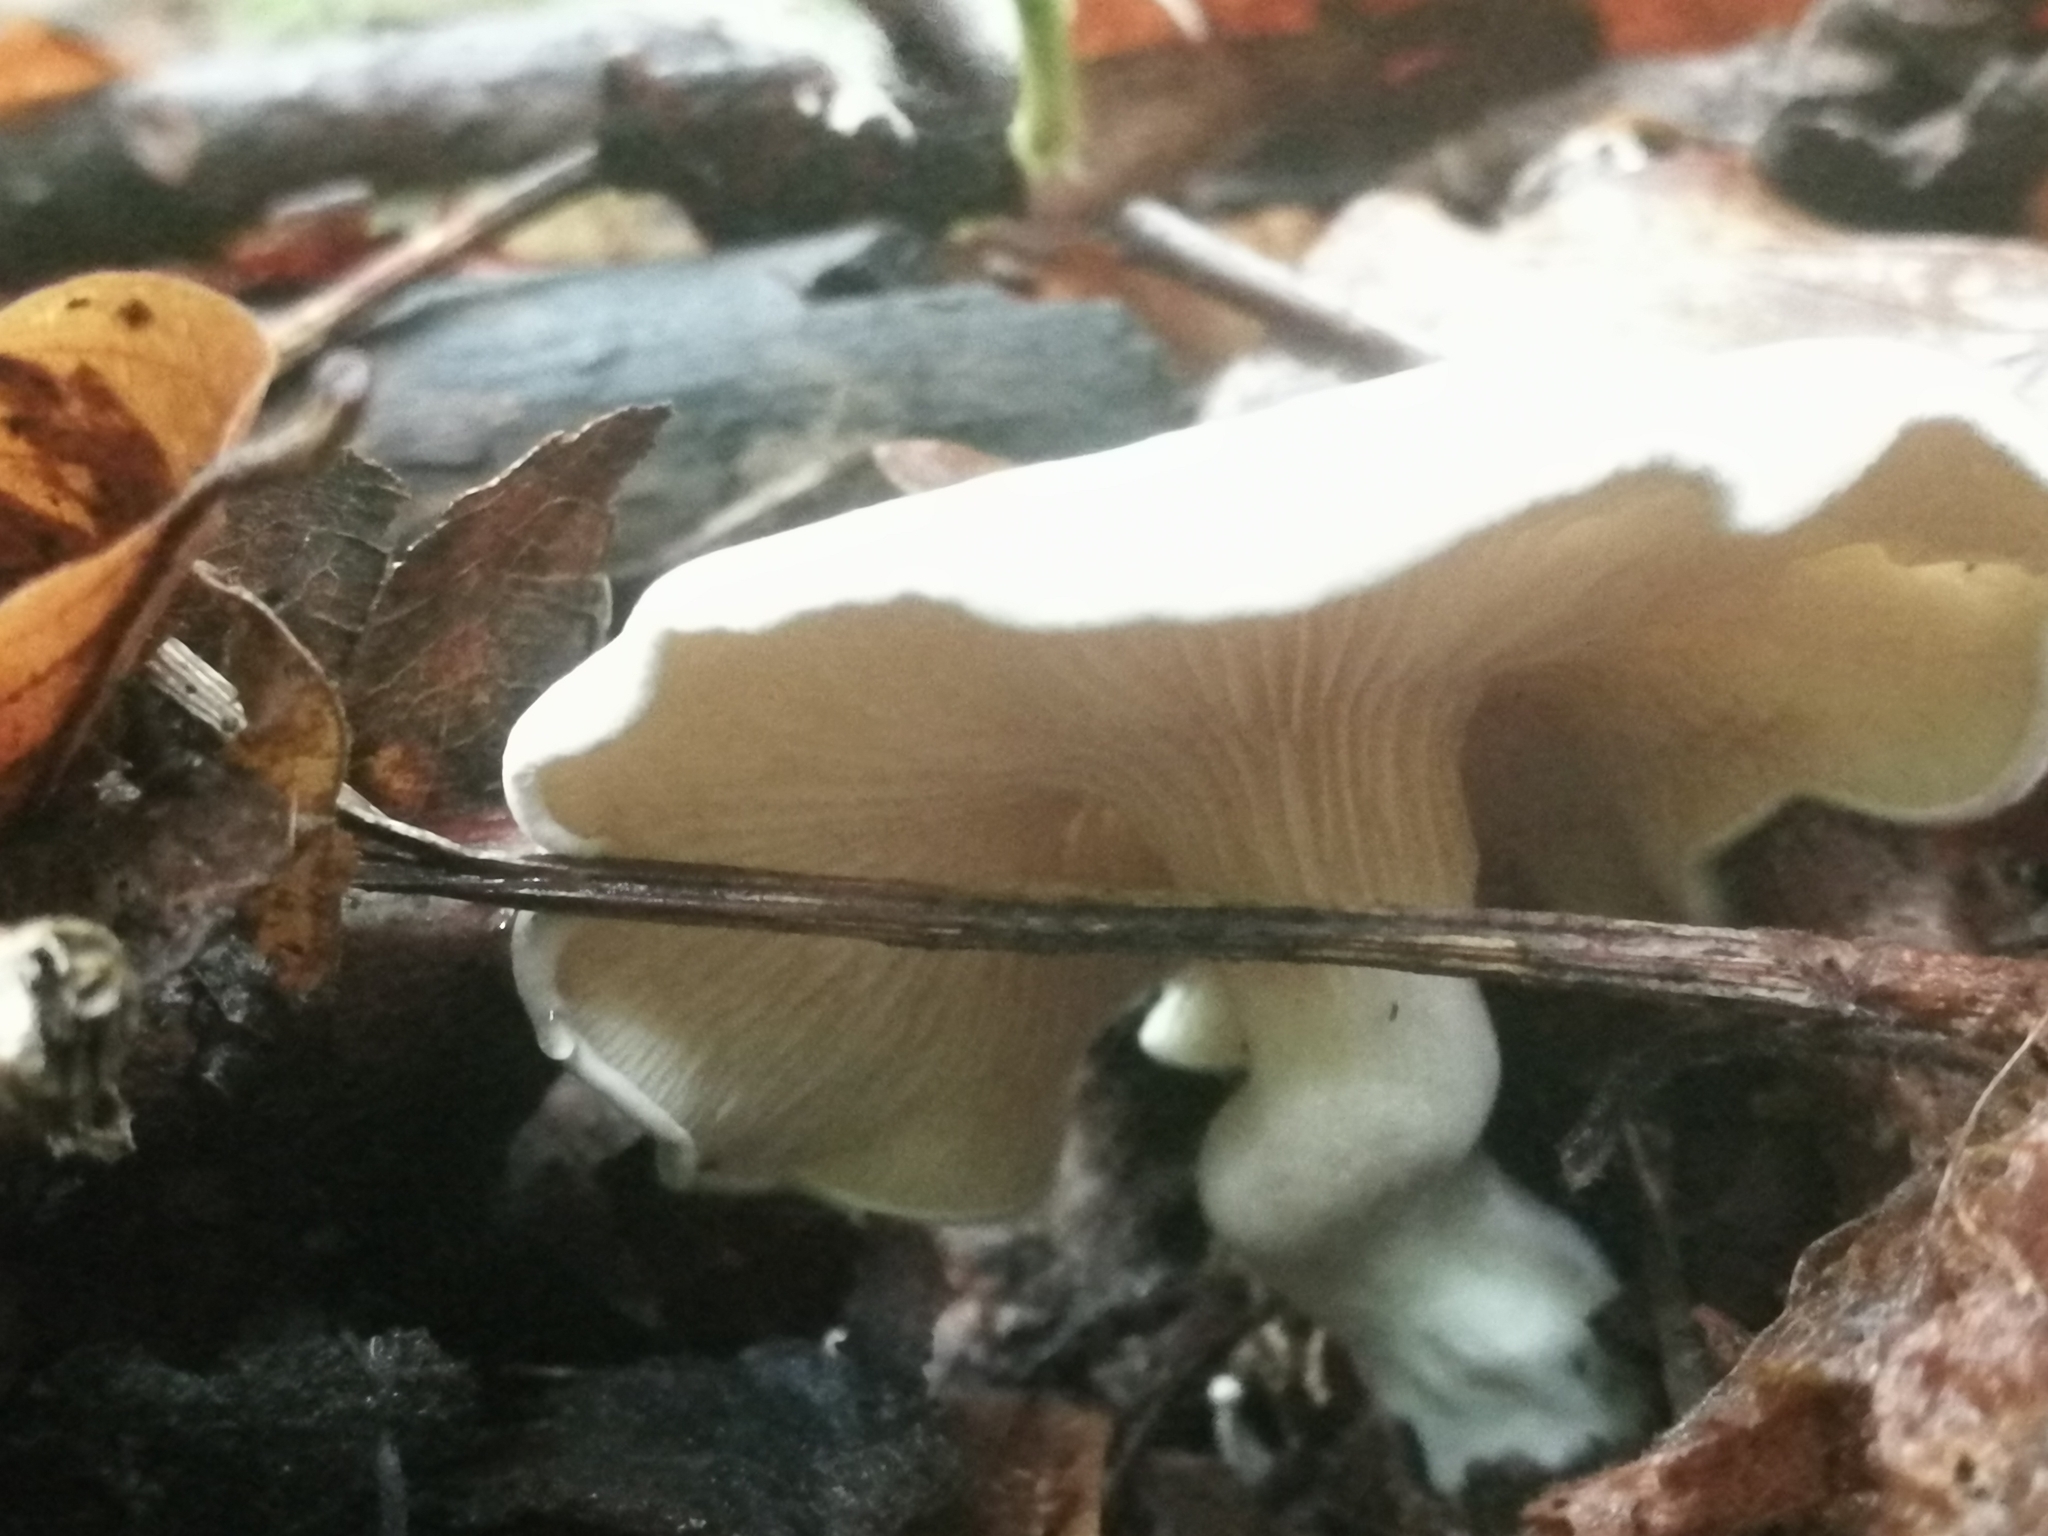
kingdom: Fungi
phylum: Basidiomycota
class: Agaricomycetes
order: Agaricales
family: Entolomataceae
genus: Clitopilus
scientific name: Clitopilus prunulus
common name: The miller
